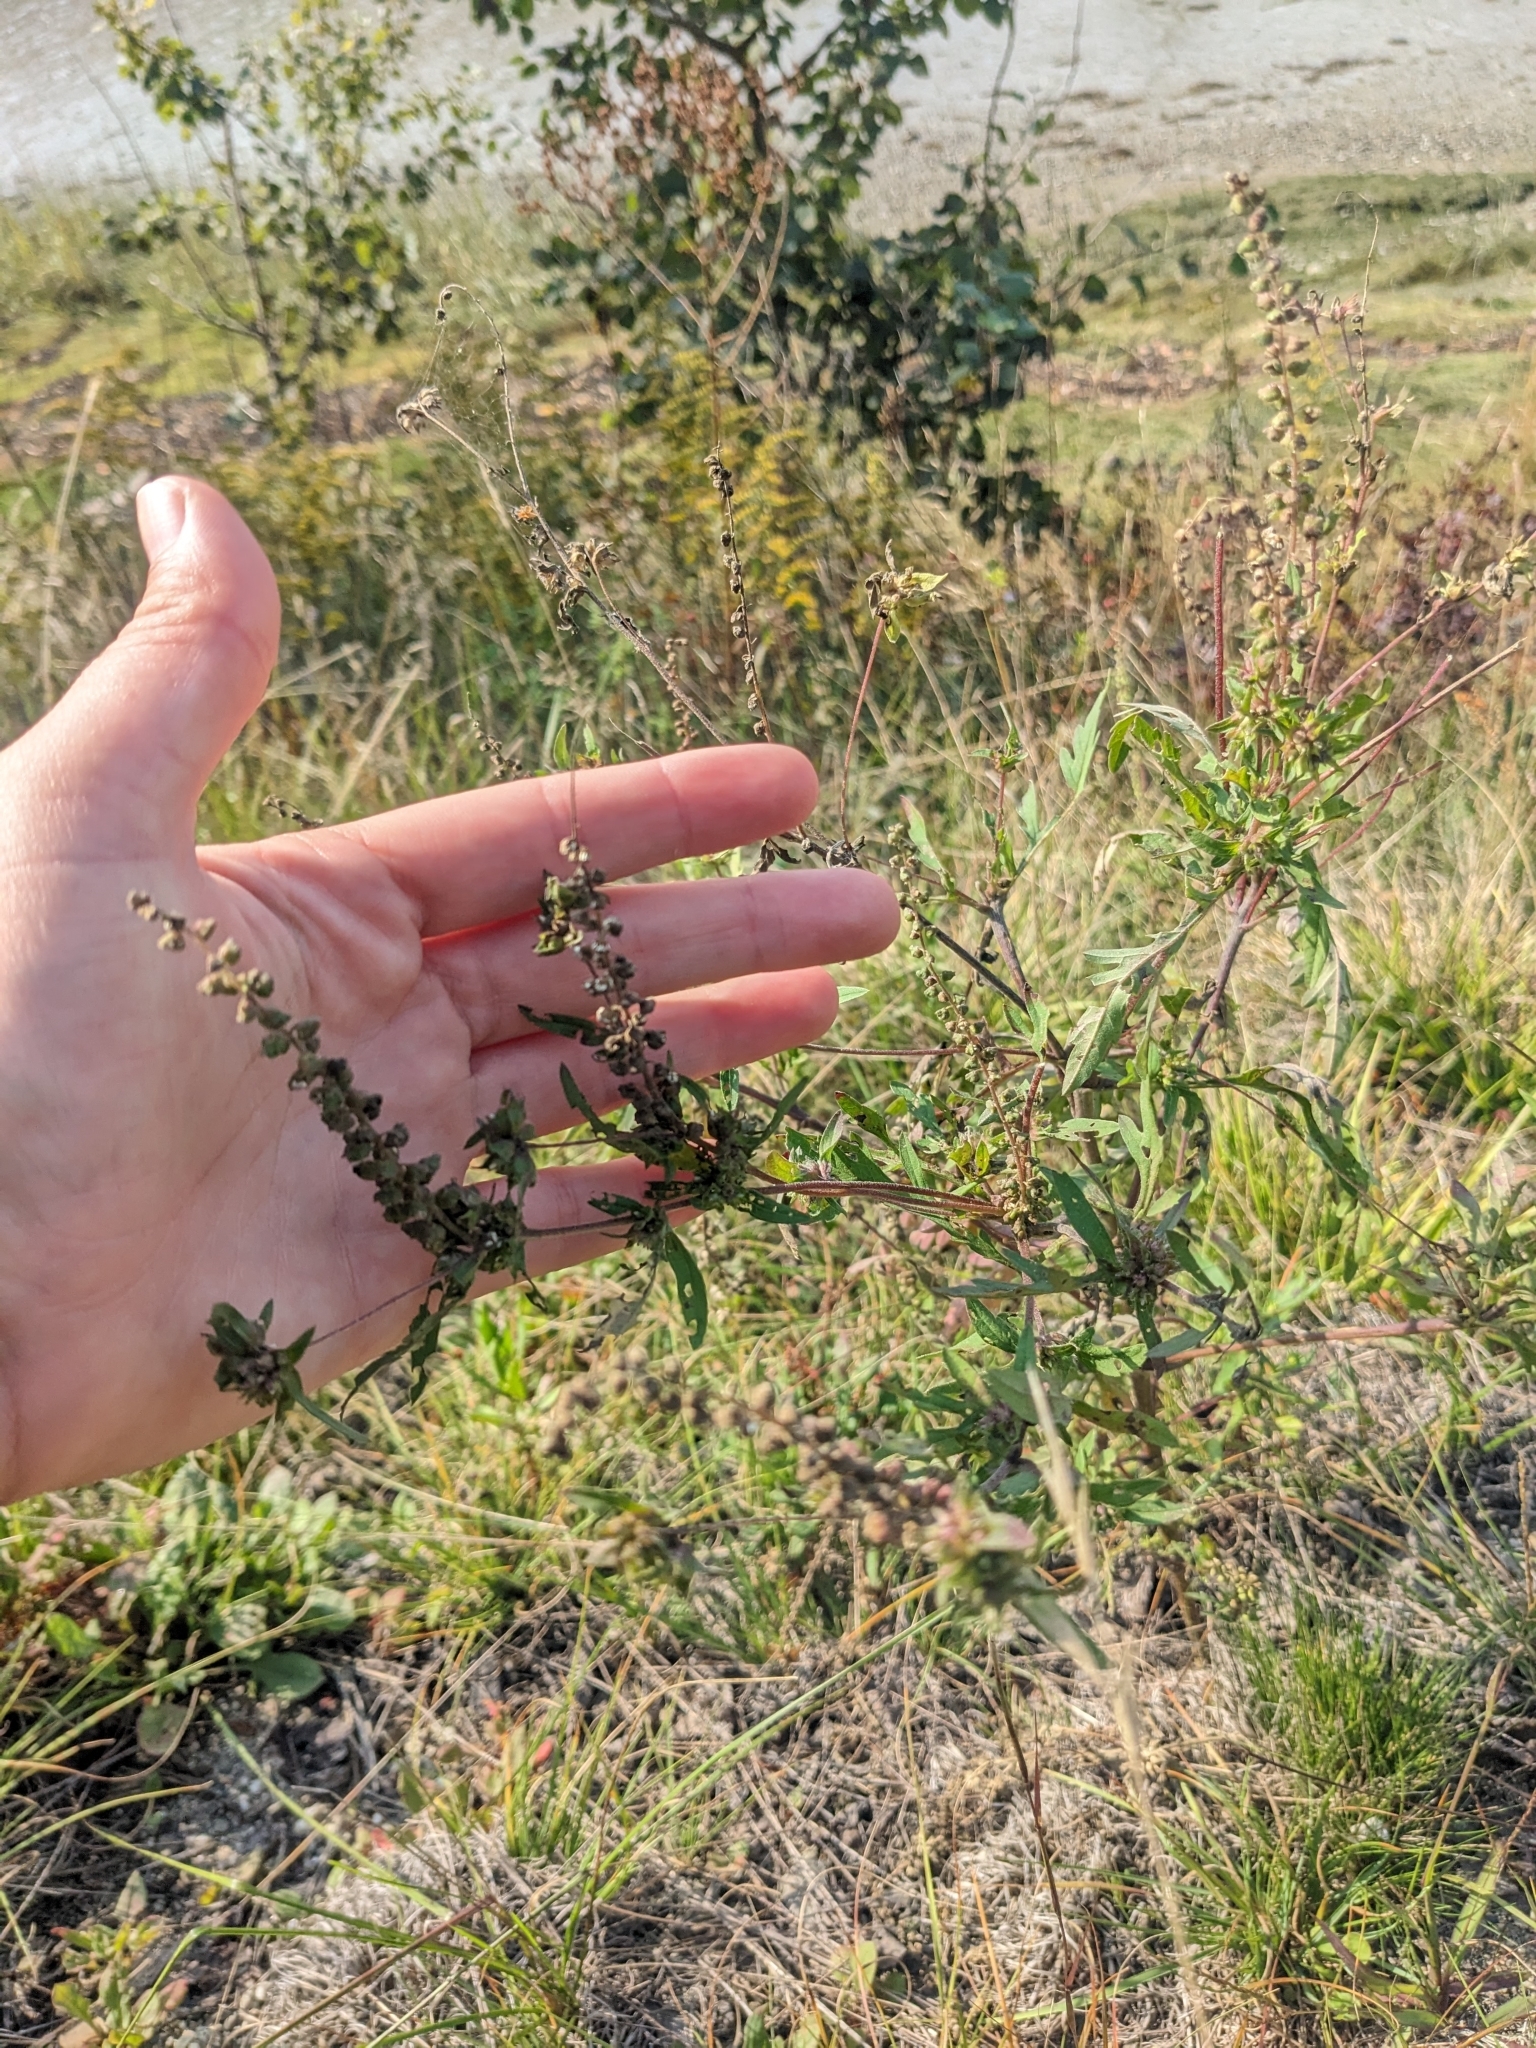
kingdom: Plantae
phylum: Tracheophyta
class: Magnoliopsida
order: Asterales
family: Asteraceae
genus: Ambrosia
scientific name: Ambrosia artemisiifolia
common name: Annual ragweed
